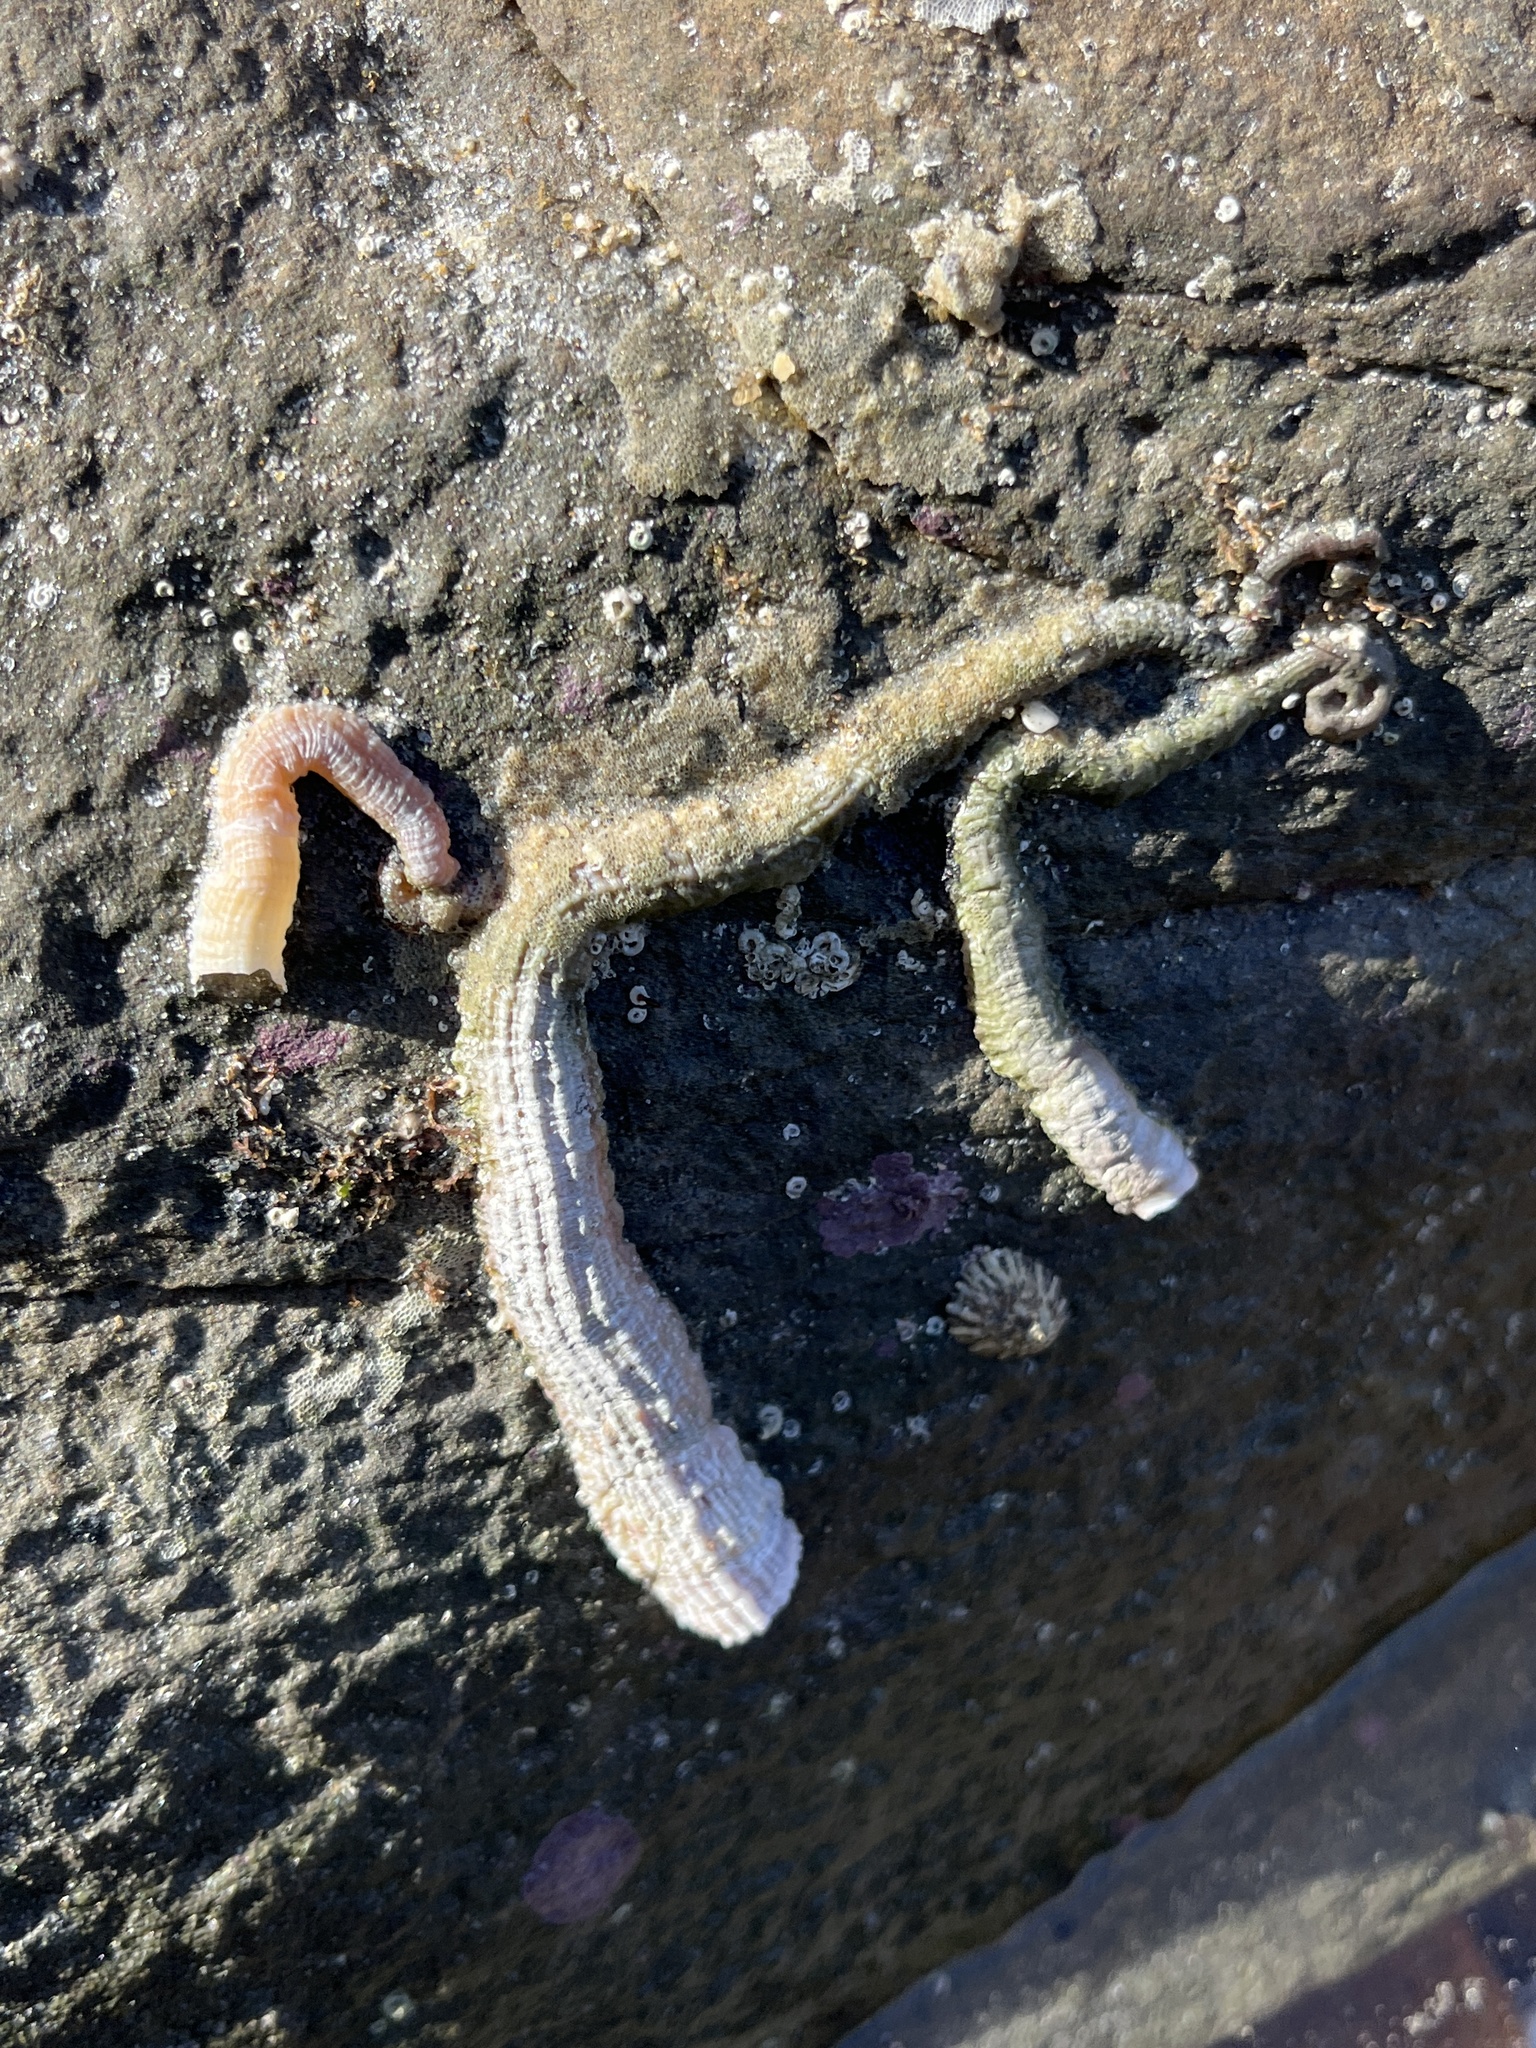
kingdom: Animalia
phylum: Mollusca
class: Gastropoda
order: Littorinimorpha
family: Vermetidae
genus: Thylacodes
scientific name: Thylacodes squamigerus
